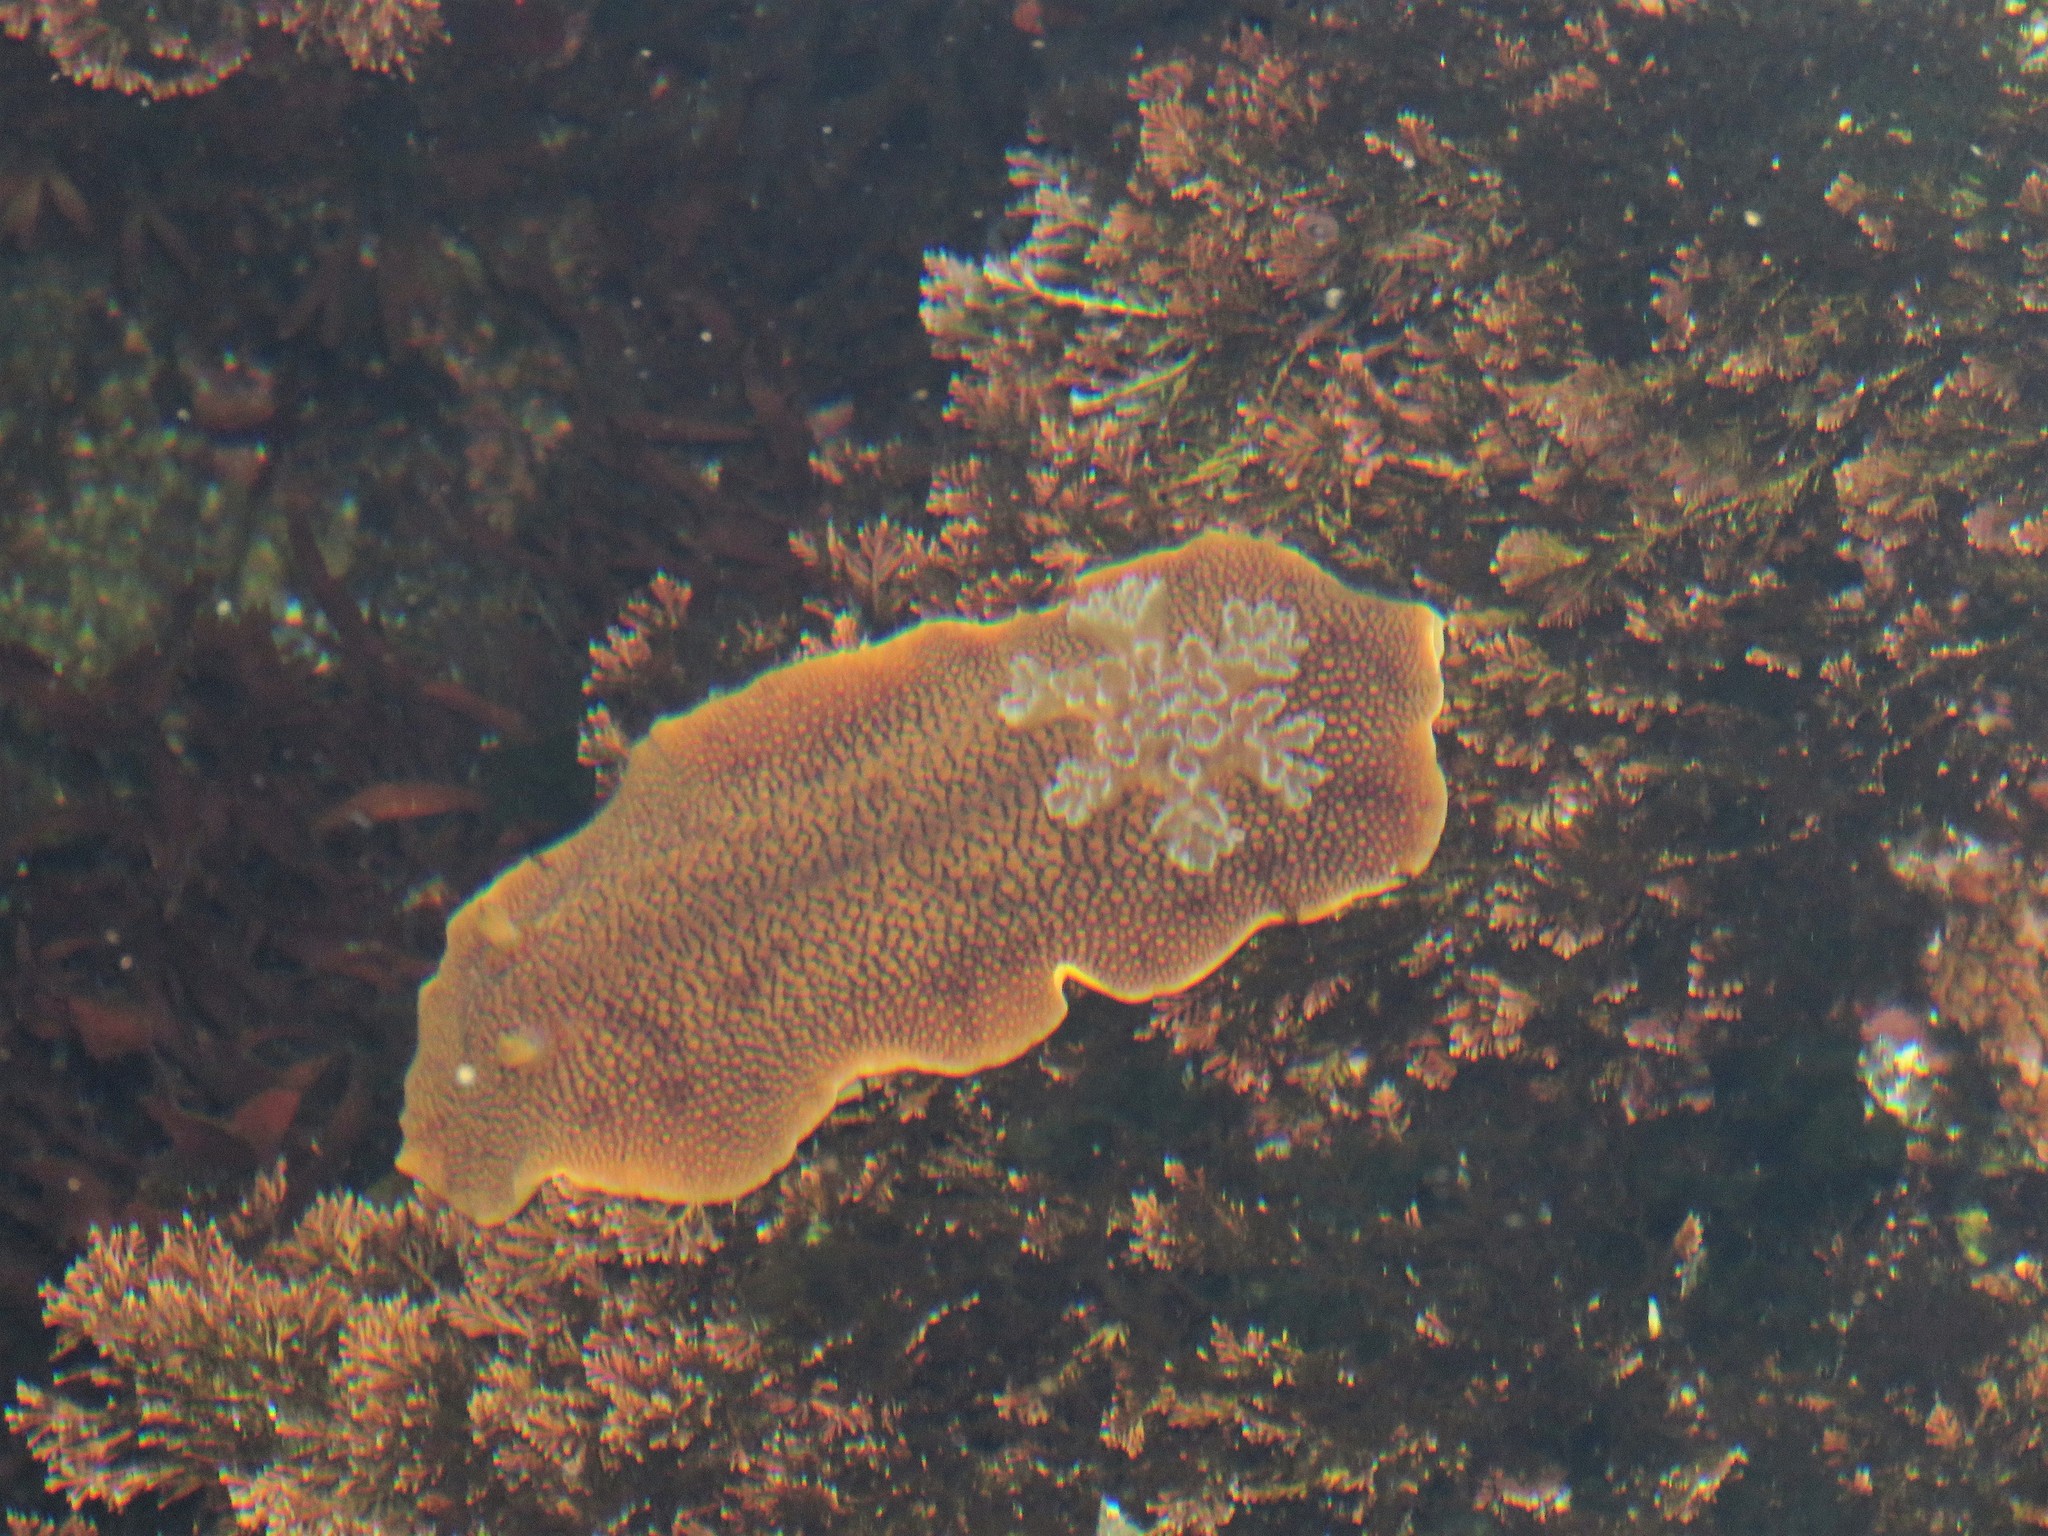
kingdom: Animalia
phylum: Mollusca
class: Gastropoda
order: Nudibranchia
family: Discodorididae
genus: Peltodoris
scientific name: Peltodoris nobilis
